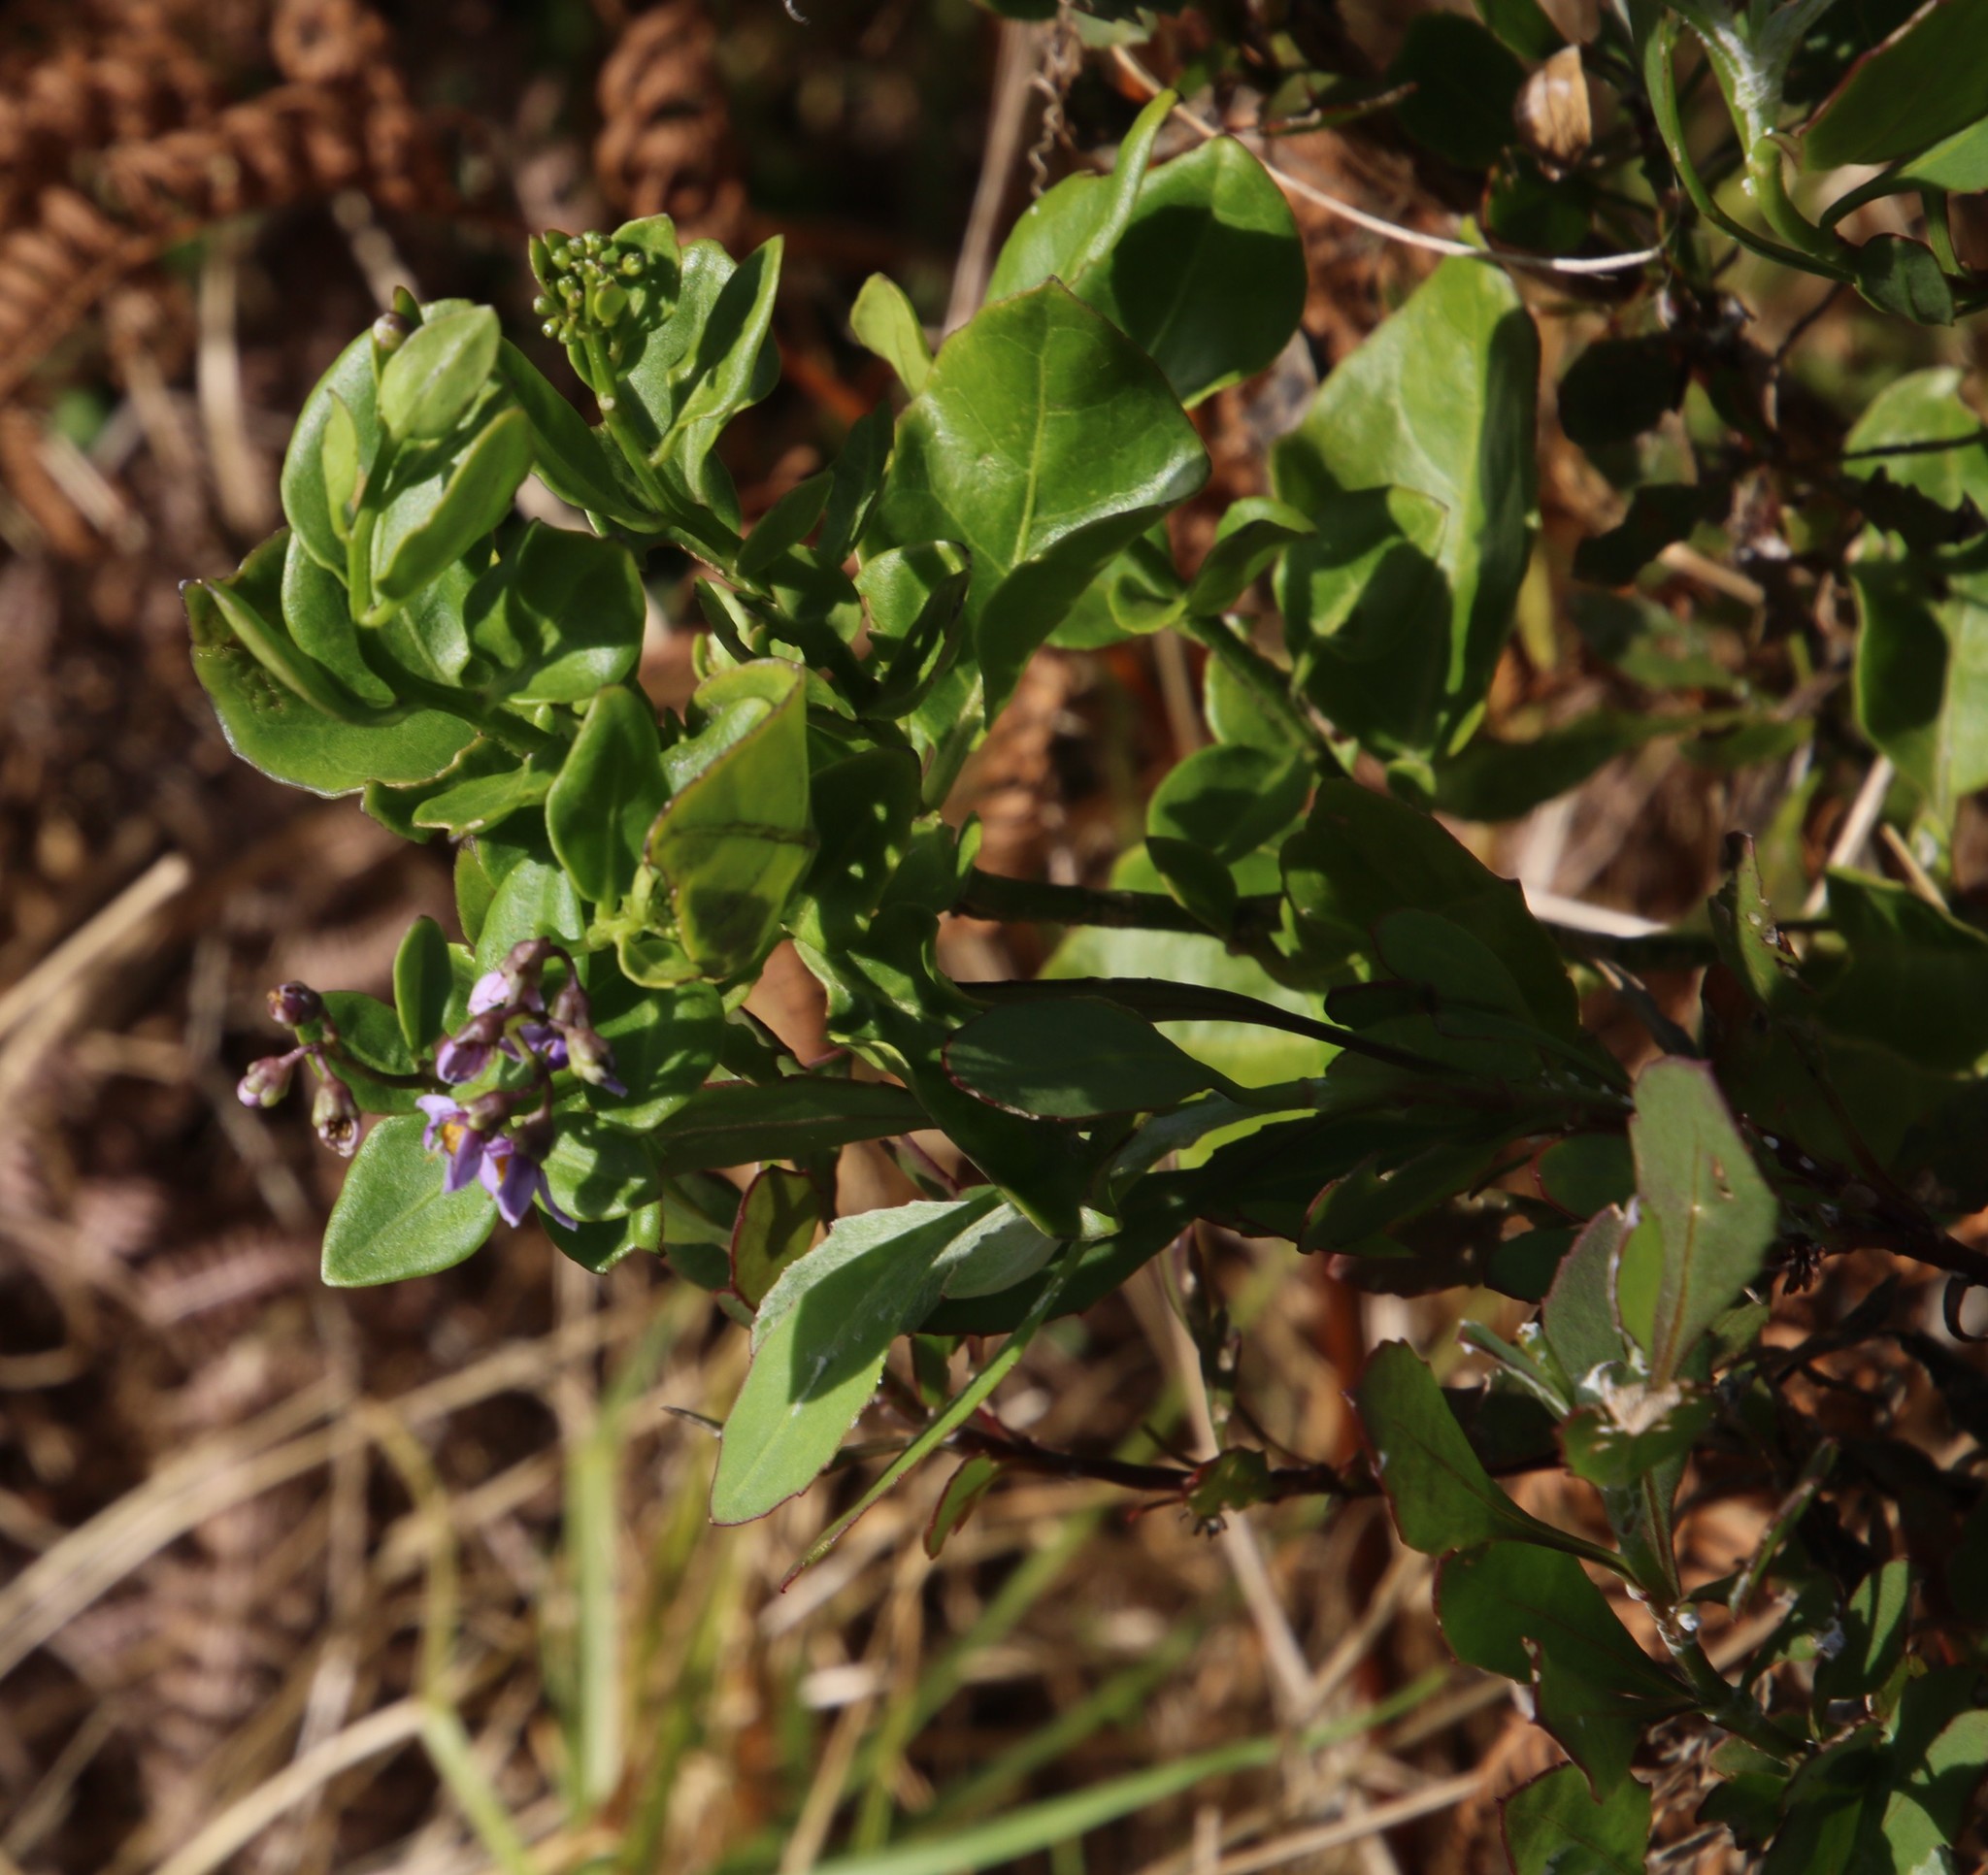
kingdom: Plantae
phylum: Tracheophyta
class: Magnoliopsida
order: Solanales
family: Solanaceae
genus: Solanum
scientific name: Solanum africanum
